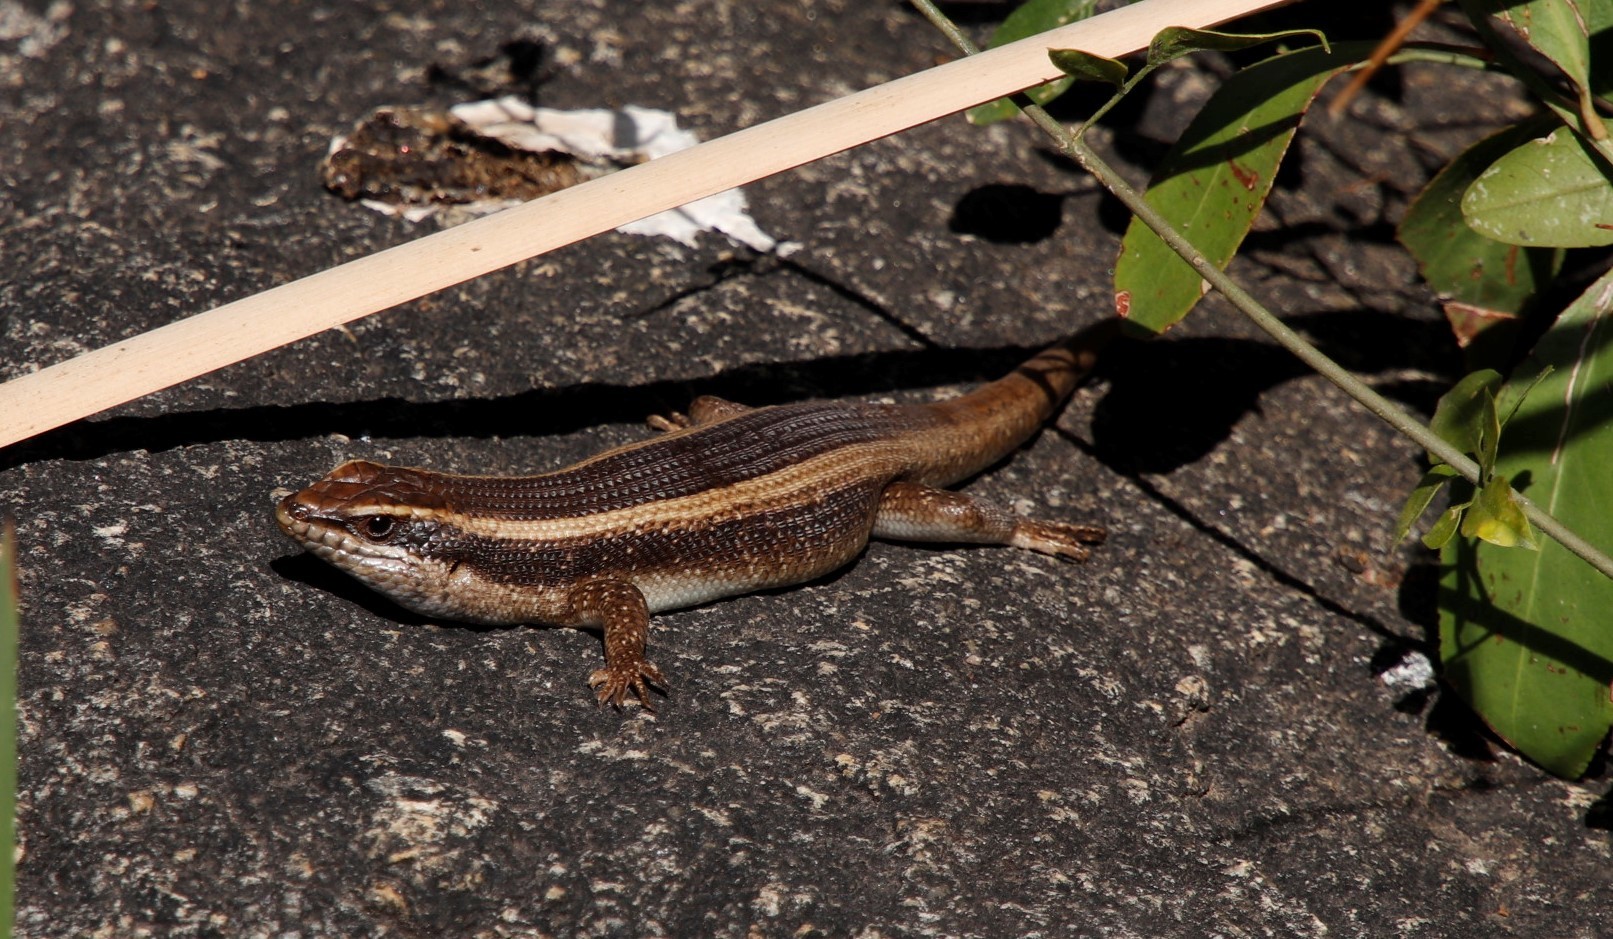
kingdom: Animalia
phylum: Chordata
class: Squamata
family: Scincidae
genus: Trachylepis
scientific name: Trachylepis striata
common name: African striped mabuya
